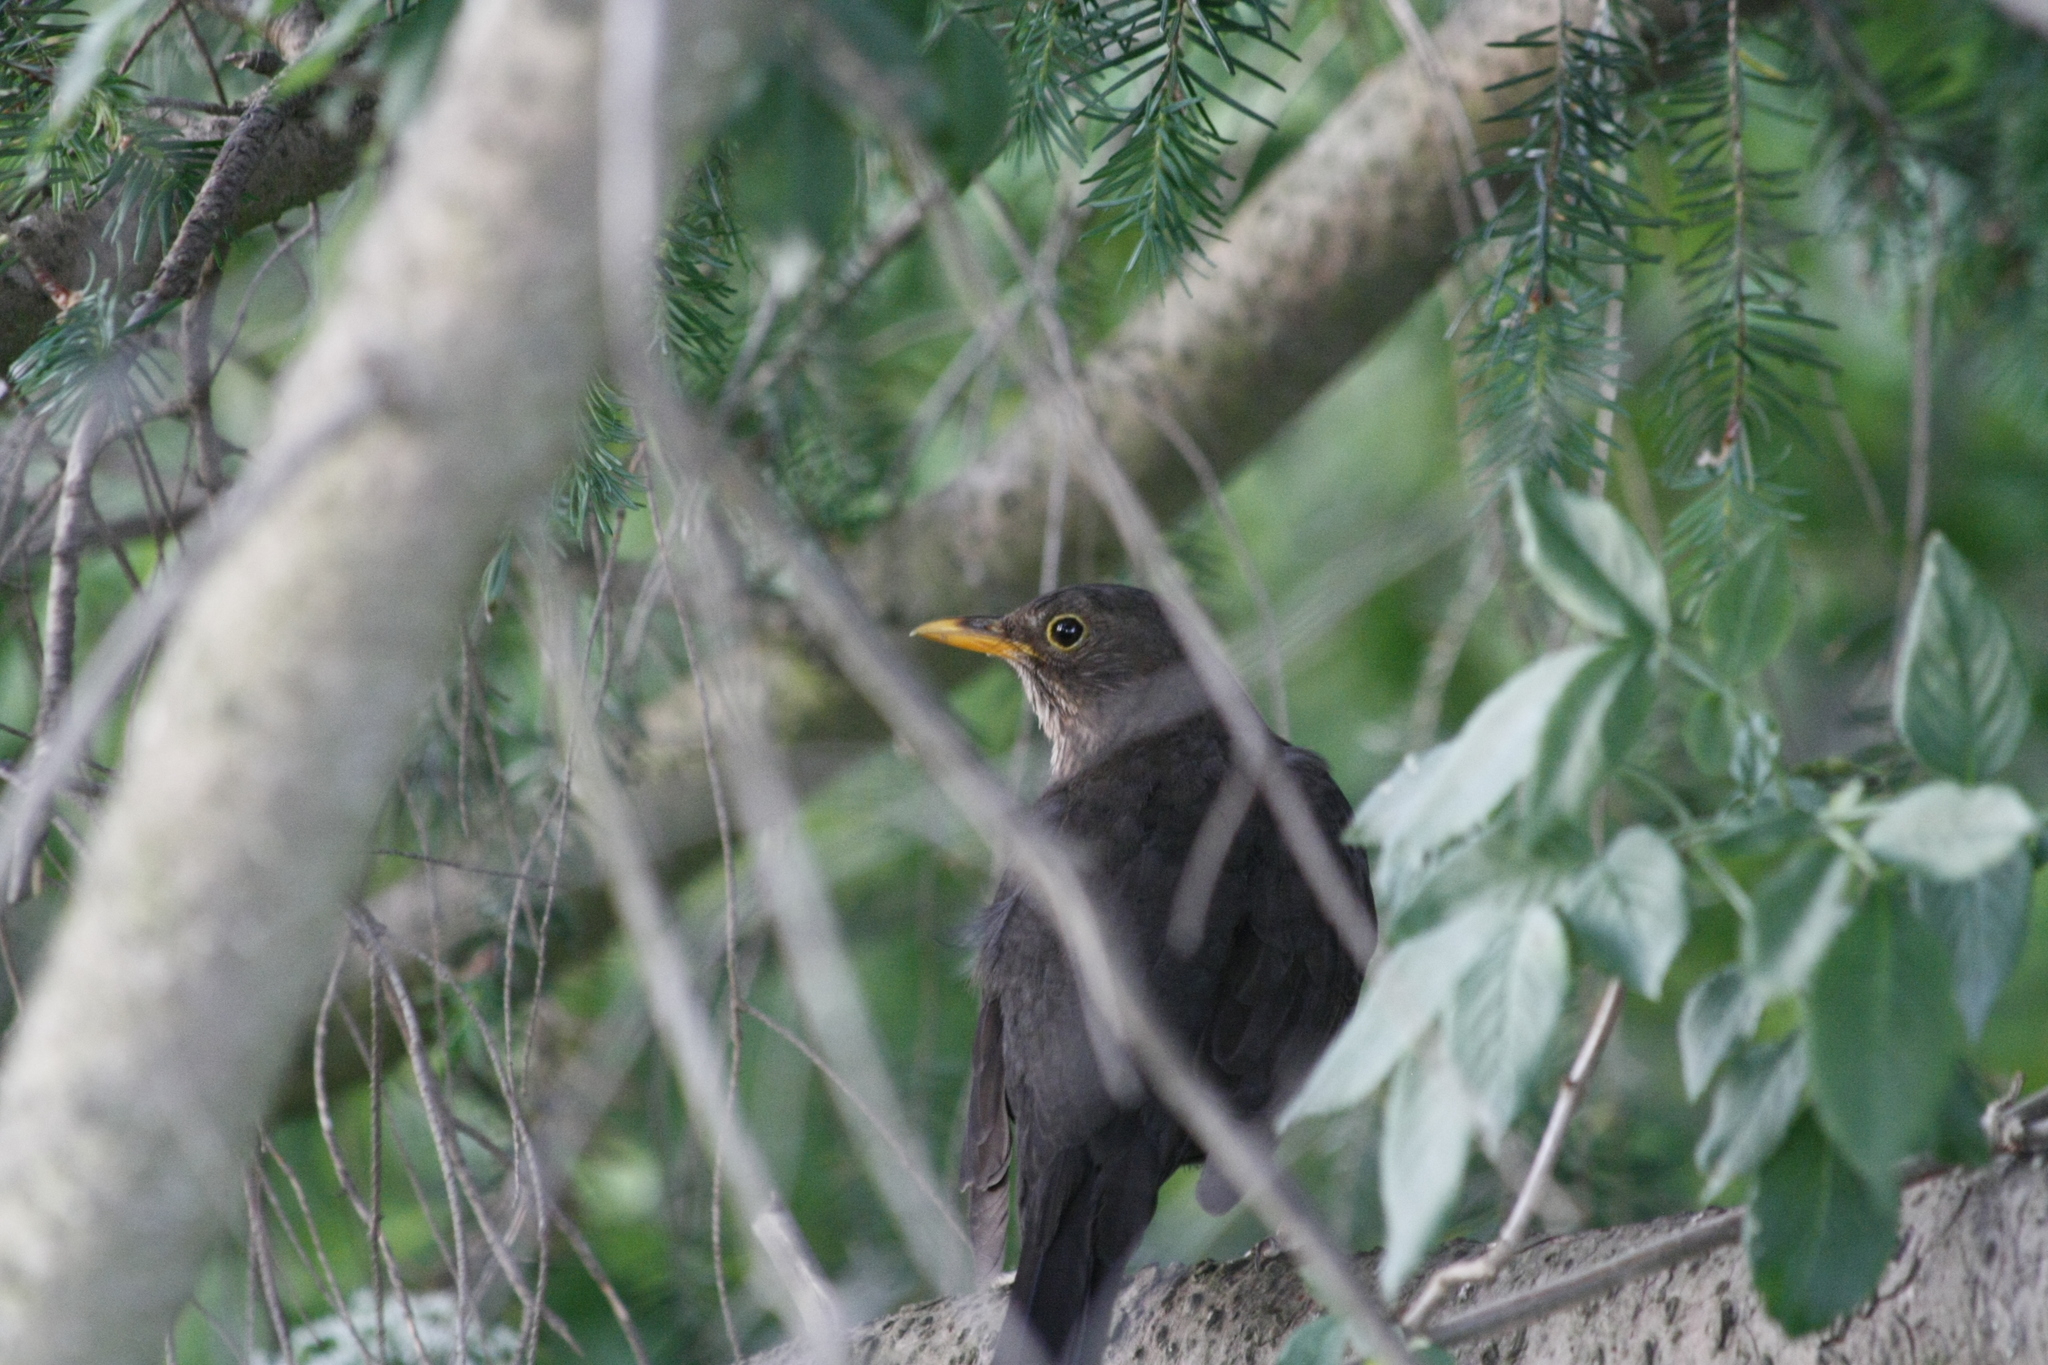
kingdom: Animalia
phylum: Chordata
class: Aves
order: Passeriformes
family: Turdidae
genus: Turdus
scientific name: Turdus merula
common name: Common blackbird
